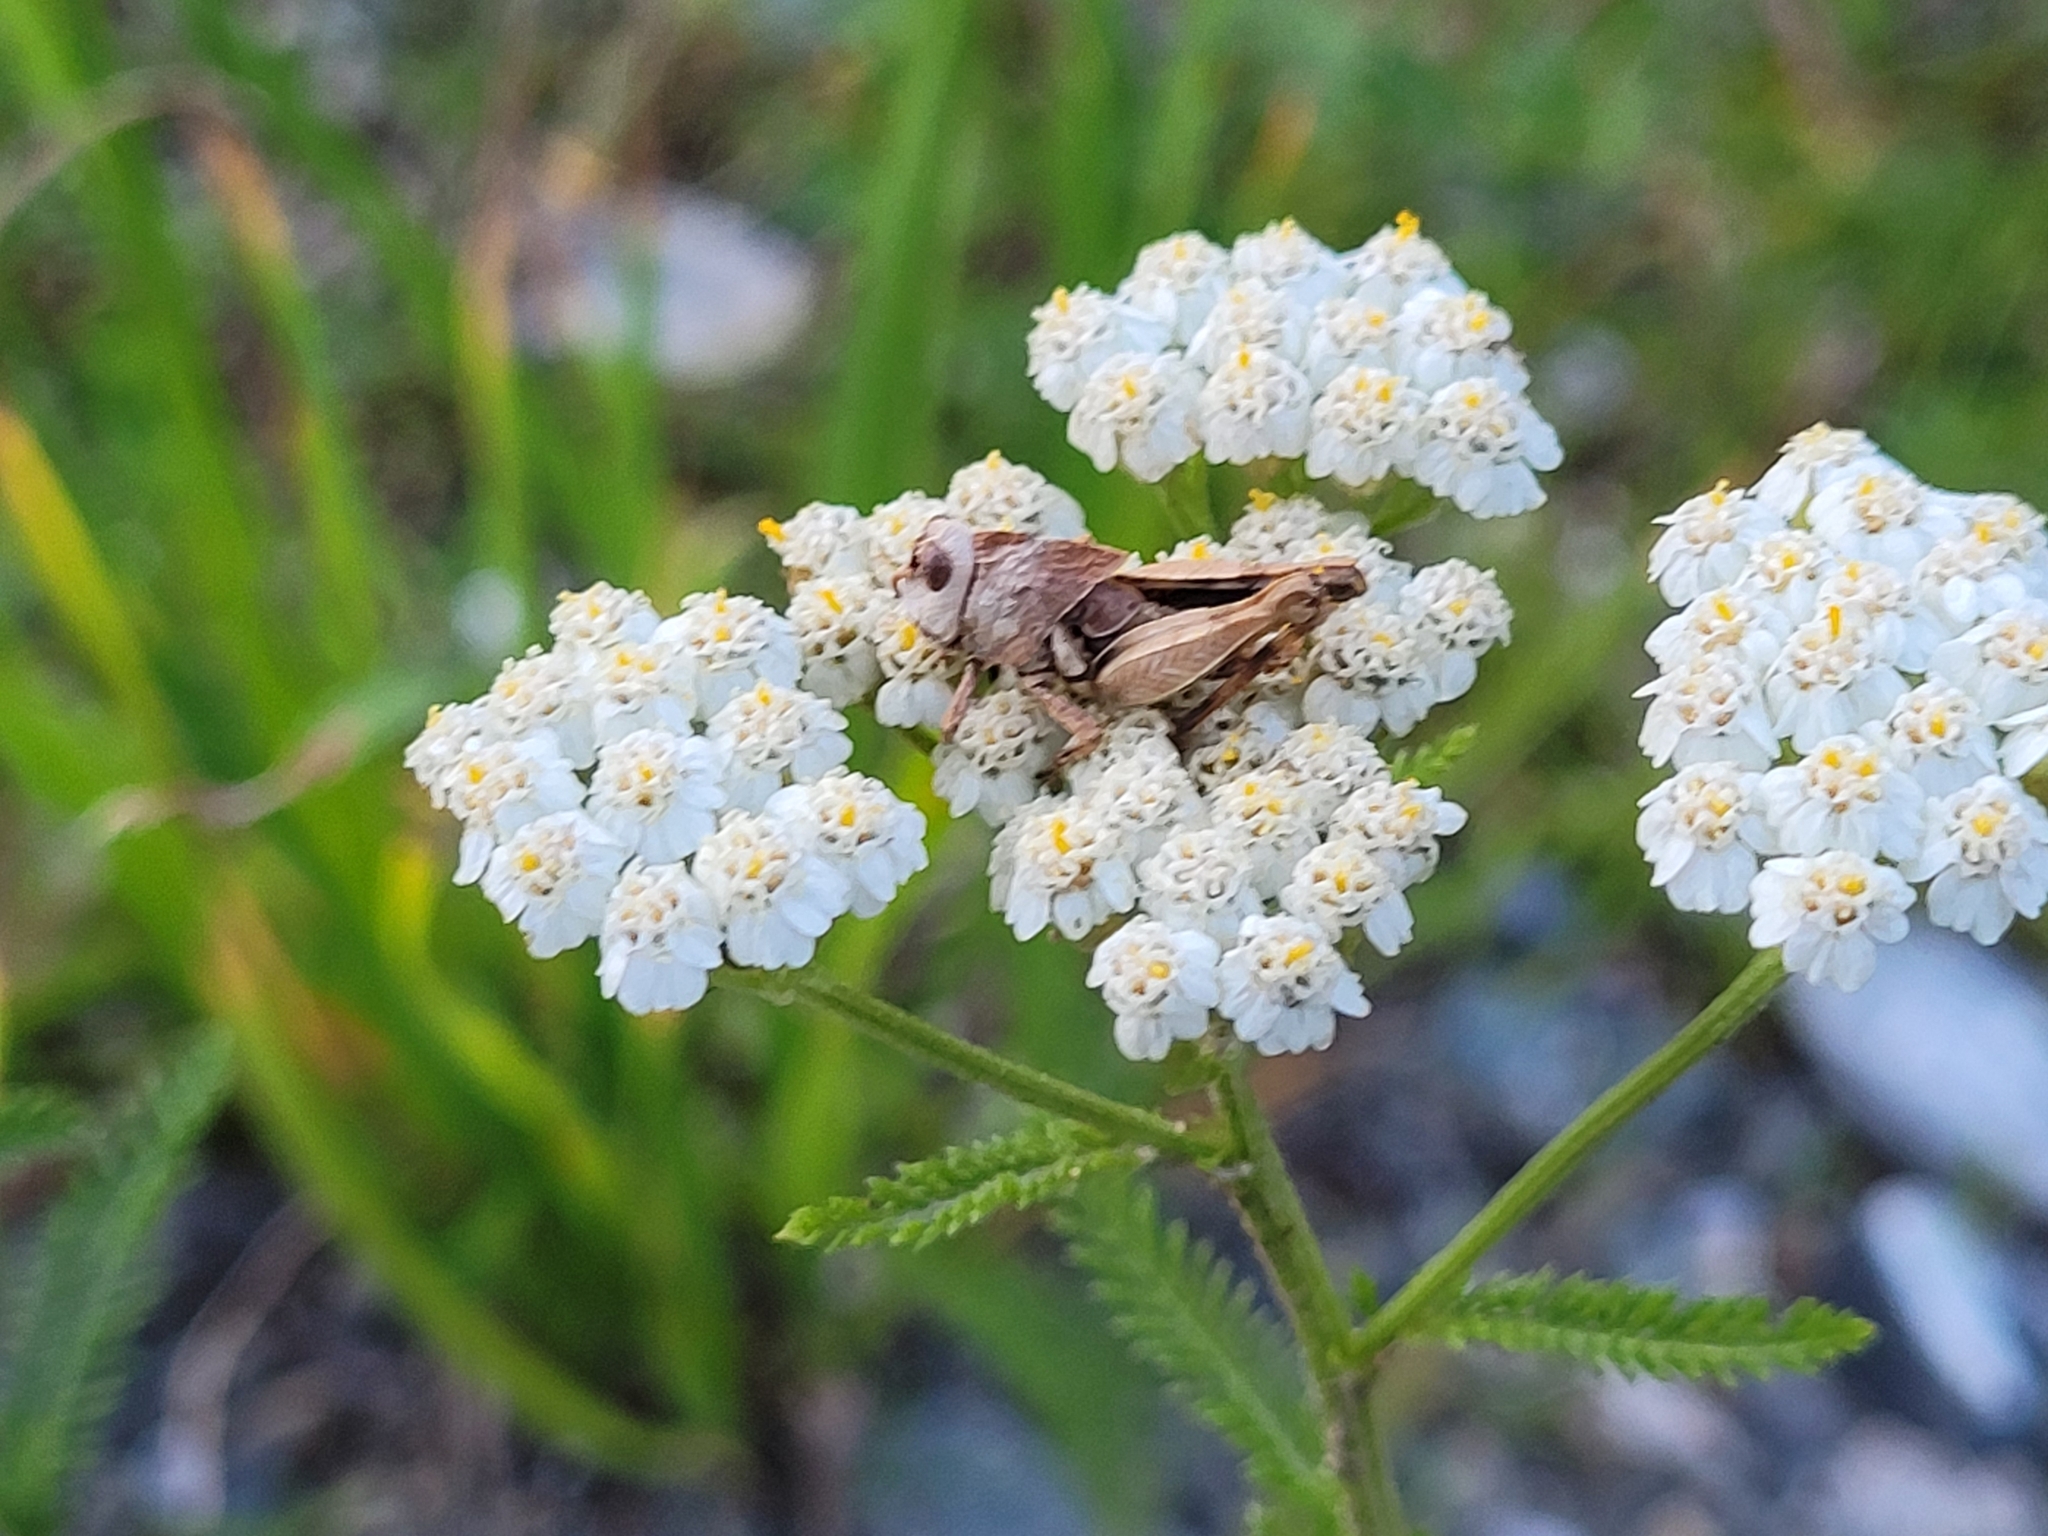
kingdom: Animalia
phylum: Arthropoda
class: Insecta
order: Orthoptera
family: Acrididae
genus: Oedipoda
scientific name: Oedipoda caerulescens
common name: Blue-winged grasshopper
